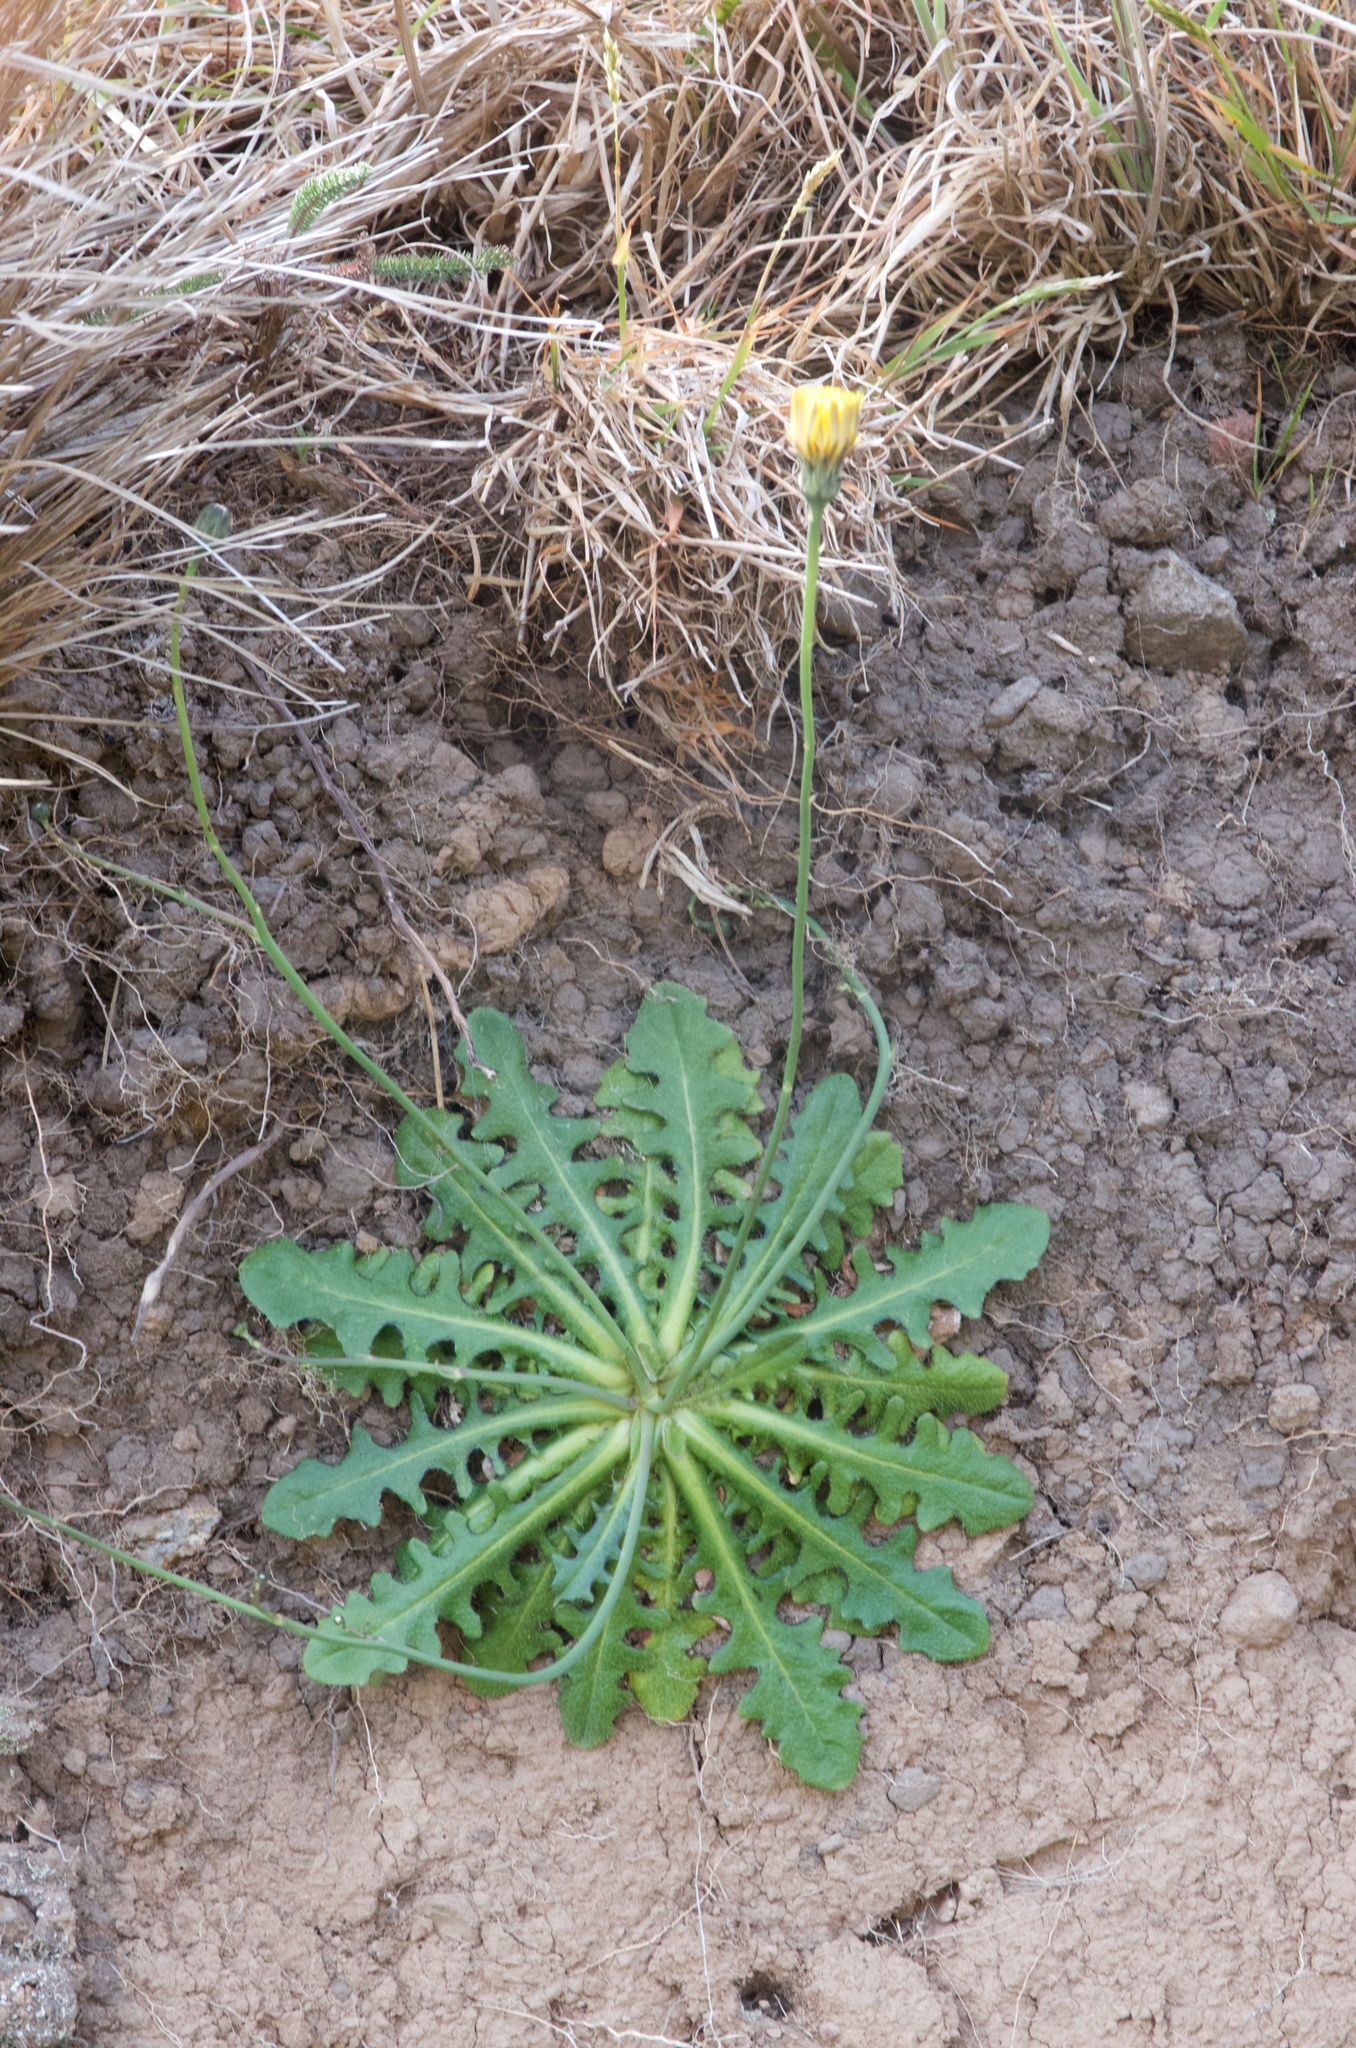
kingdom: Plantae
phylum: Tracheophyta
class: Magnoliopsida
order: Asterales
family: Asteraceae
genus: Hypochaeris
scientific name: Hypochaeris radicata
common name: Flatweed
